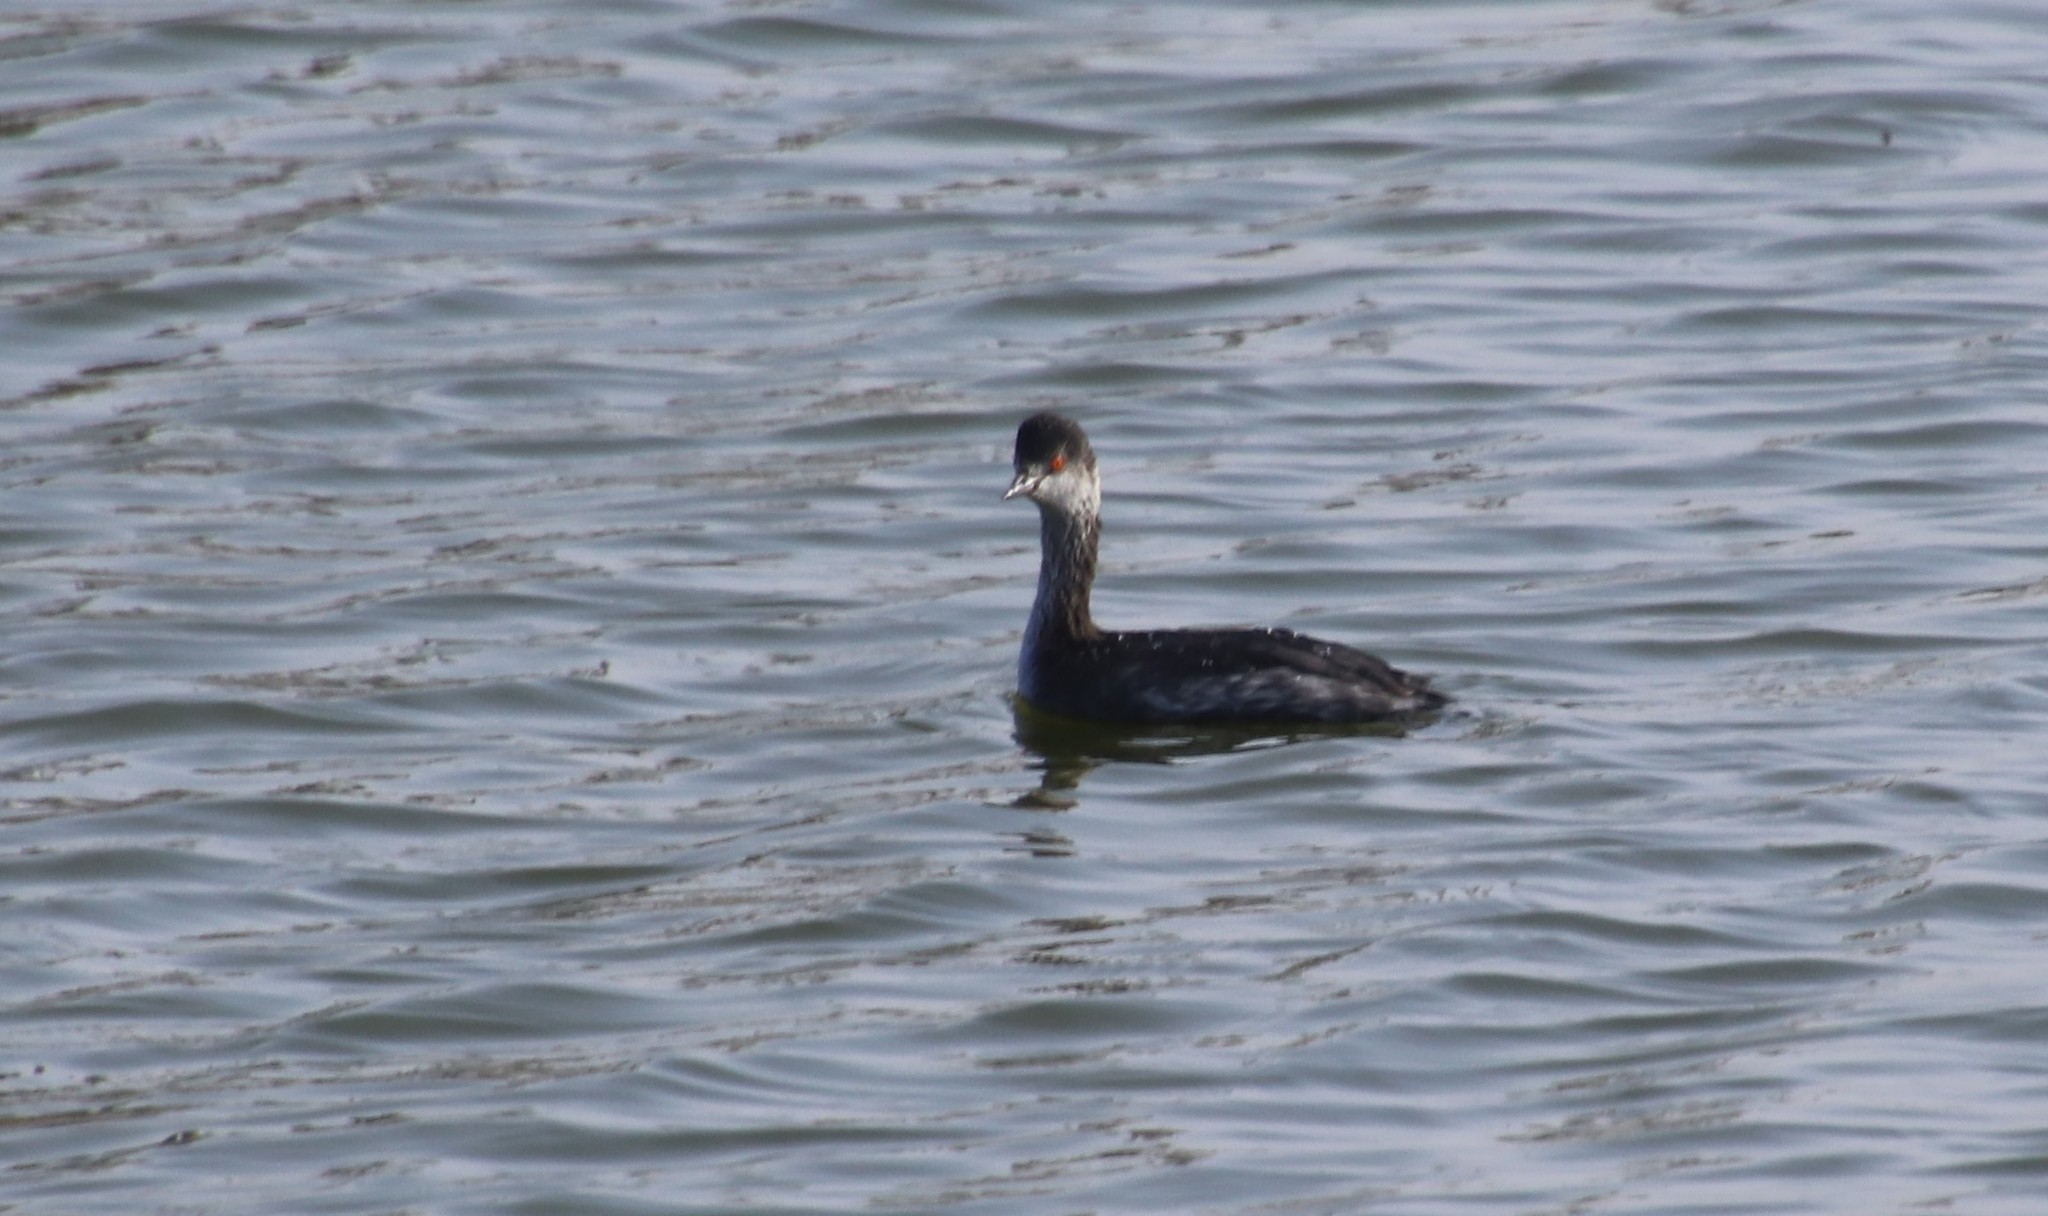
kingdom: Animalia
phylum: Chordata
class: Aves
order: Podicipediformes
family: Podicipedidae
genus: Podiceps
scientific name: Podiceps nigricollis
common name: Black-necked grebe
